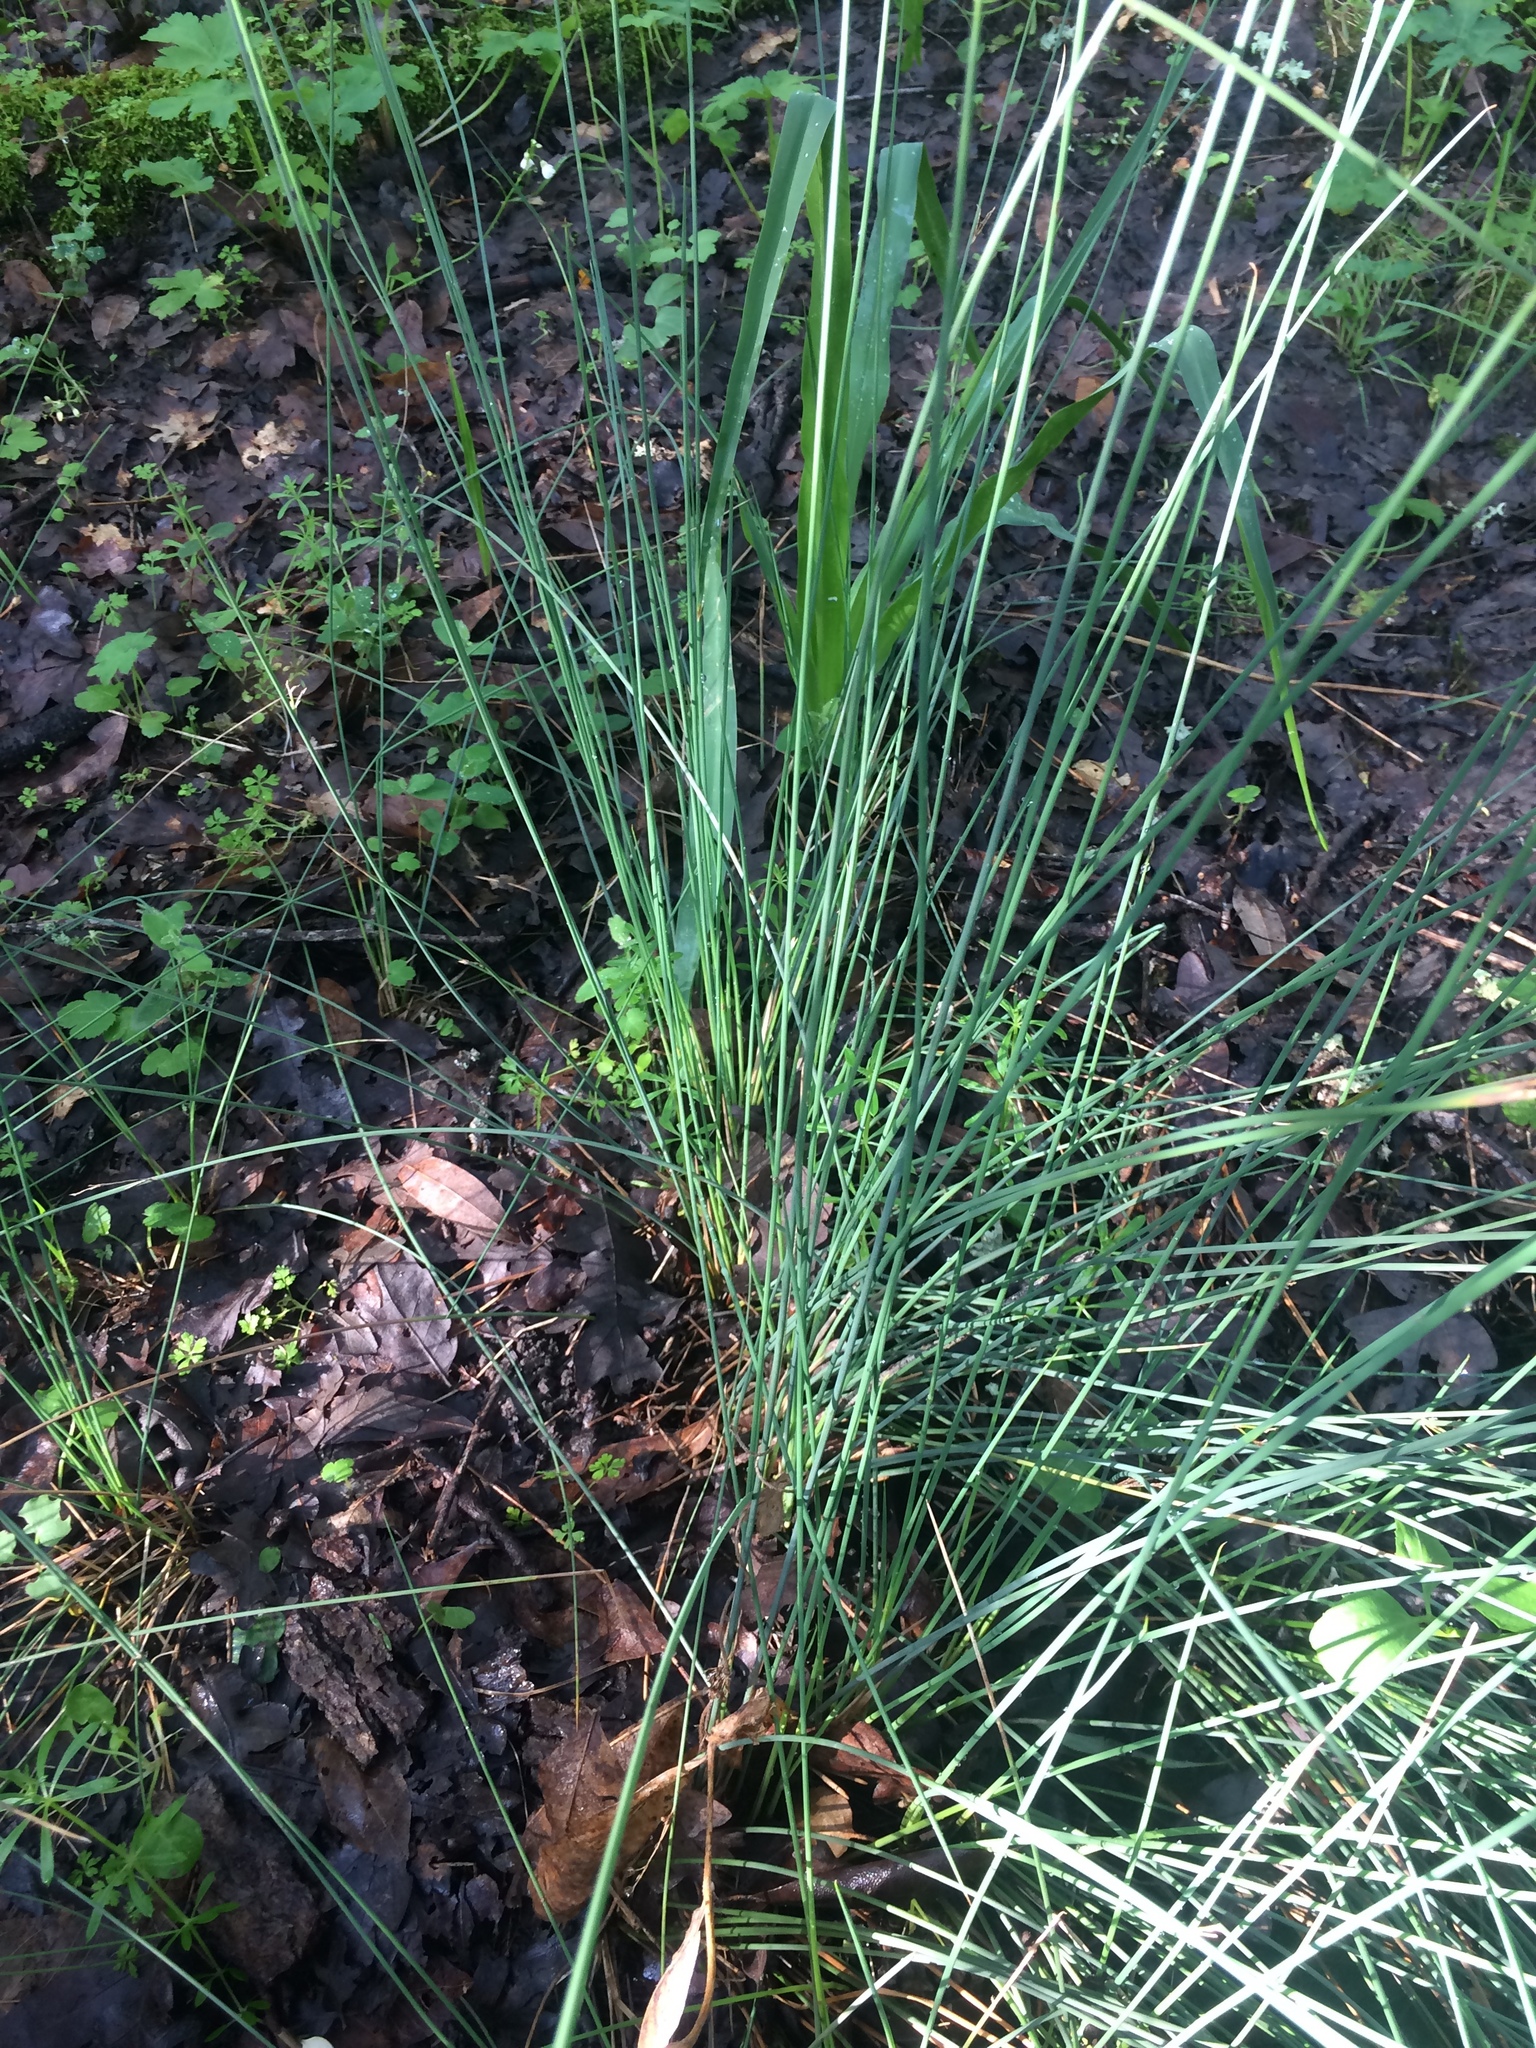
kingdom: Plantae
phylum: Tracheophyta
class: Liliopsida
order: Poales
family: Juncaceae
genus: Juncus
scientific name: Juncus patens
